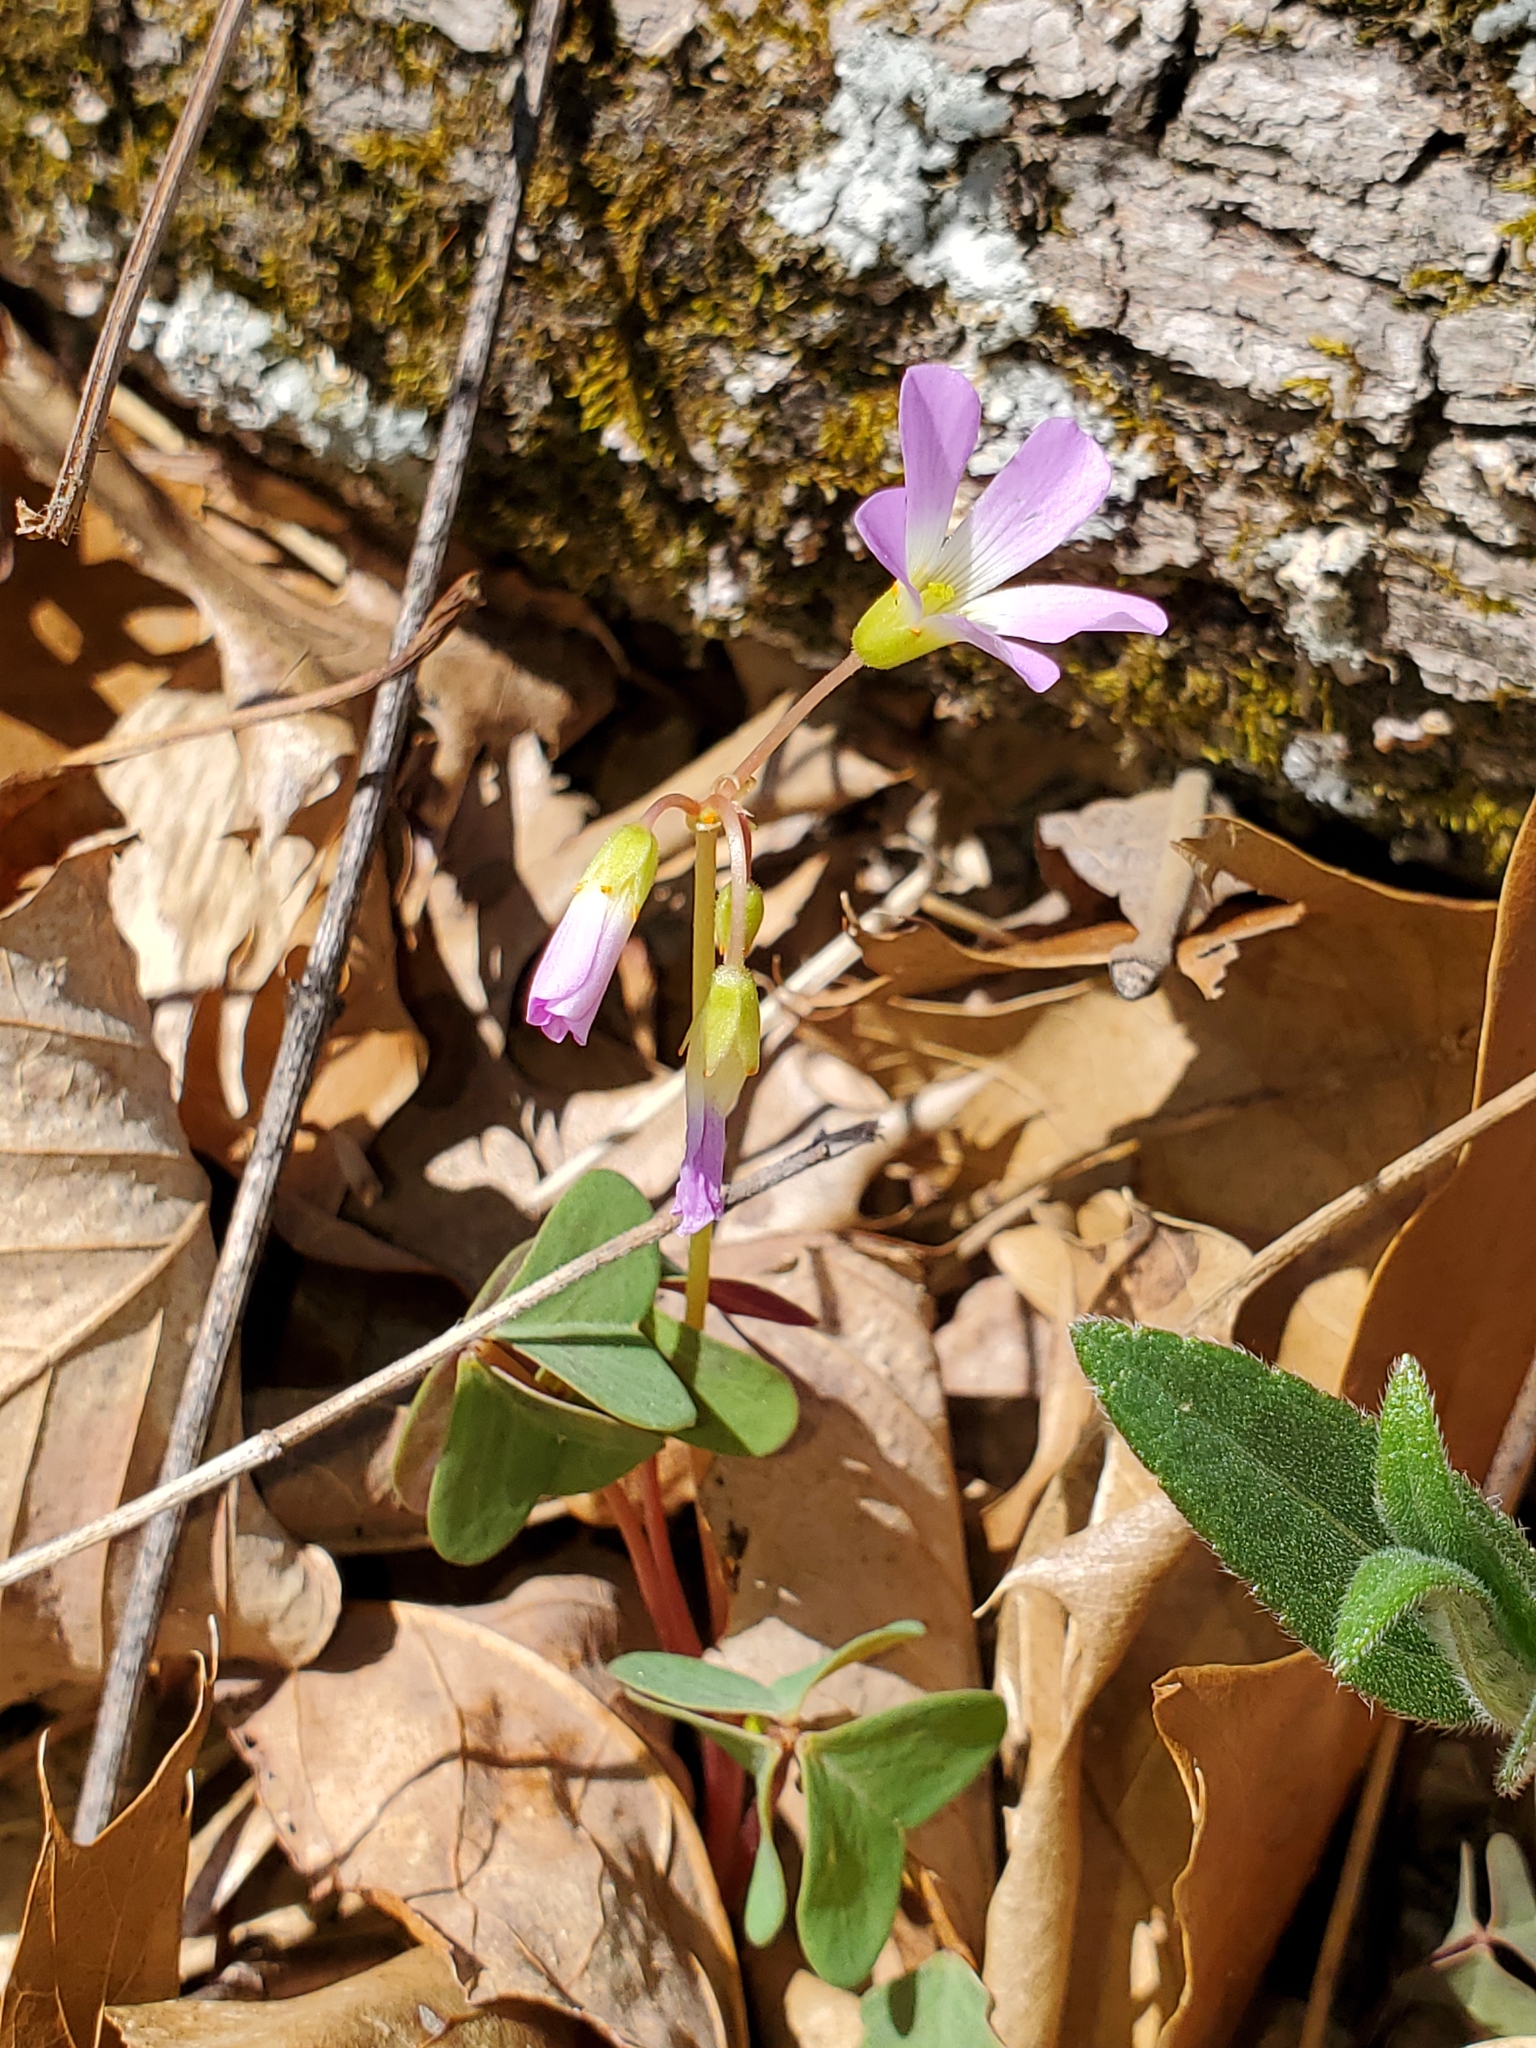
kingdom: Plantae
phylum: Tracheophyta
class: Magnoliopsida
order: Oxalidales
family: Oxalidaceae
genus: Oxalis
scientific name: Oxalis violacea
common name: Violet wood-sorrel
